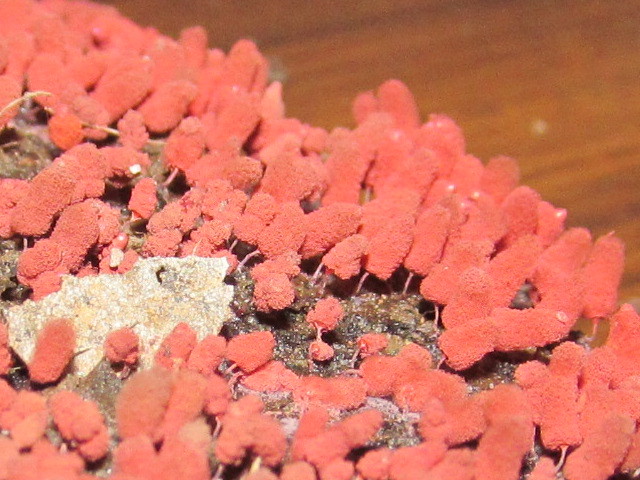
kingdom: Protozoa
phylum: Mycetozoa
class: Myxomycetes
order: Trichiales
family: Arcyriaceae
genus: Arcyria
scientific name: Arcyria denudata
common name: Carnival candy slime mold
